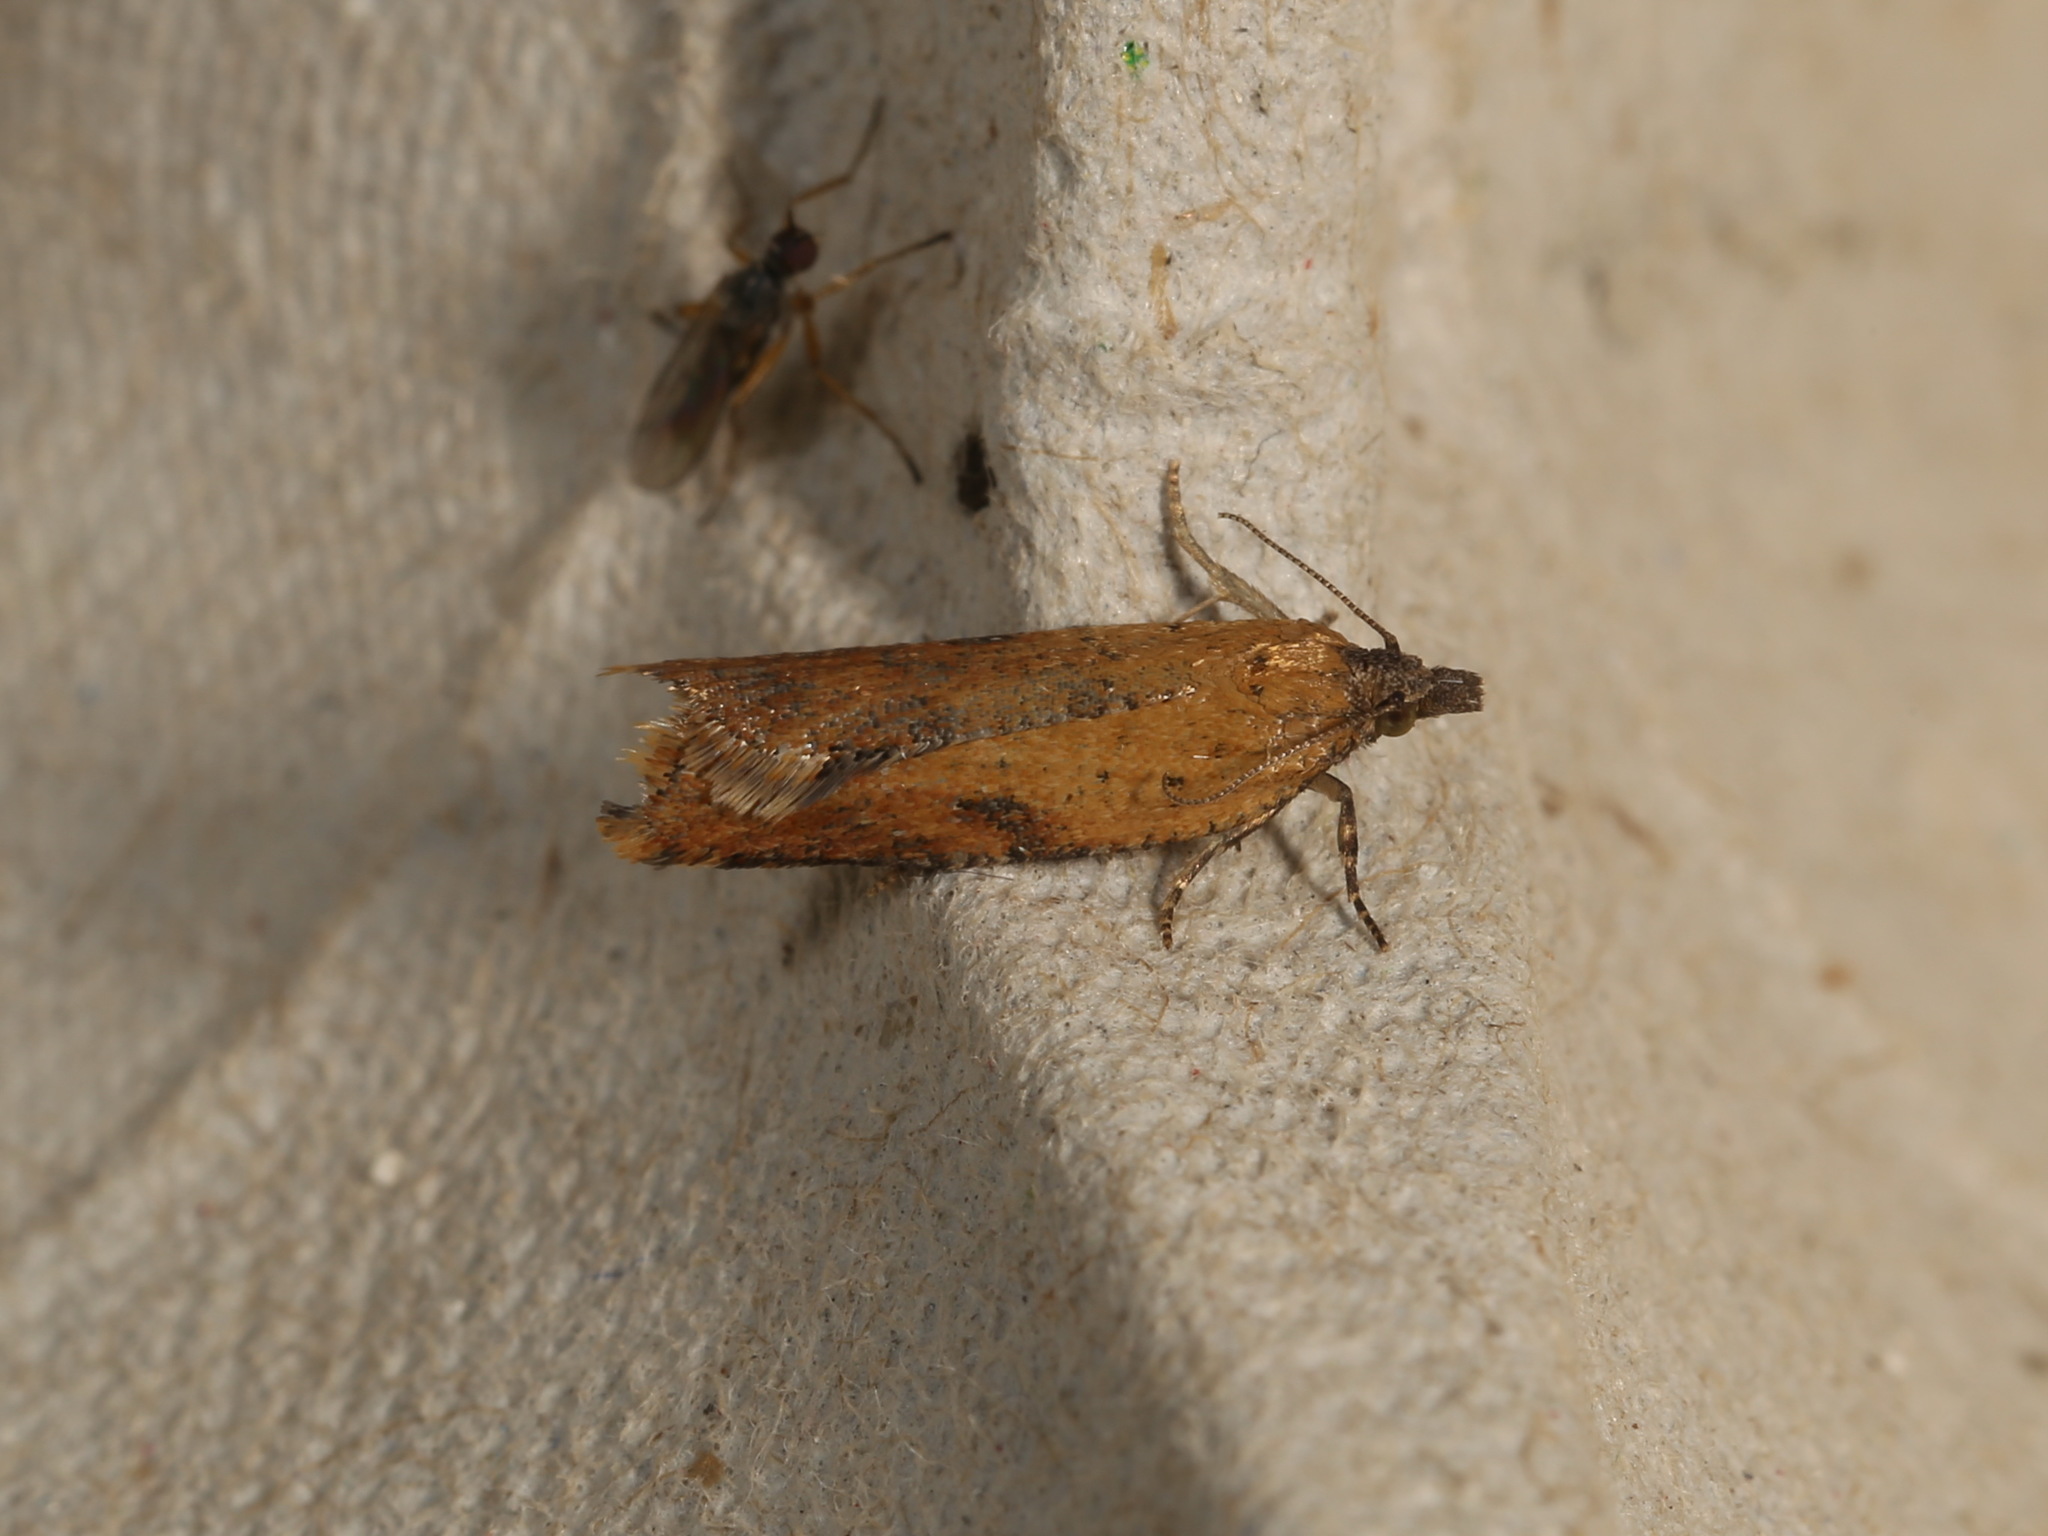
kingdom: Animalia
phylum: Arthropoda
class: Insecta
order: Lepidoptera
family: Tortricidae
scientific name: Tortricidae
